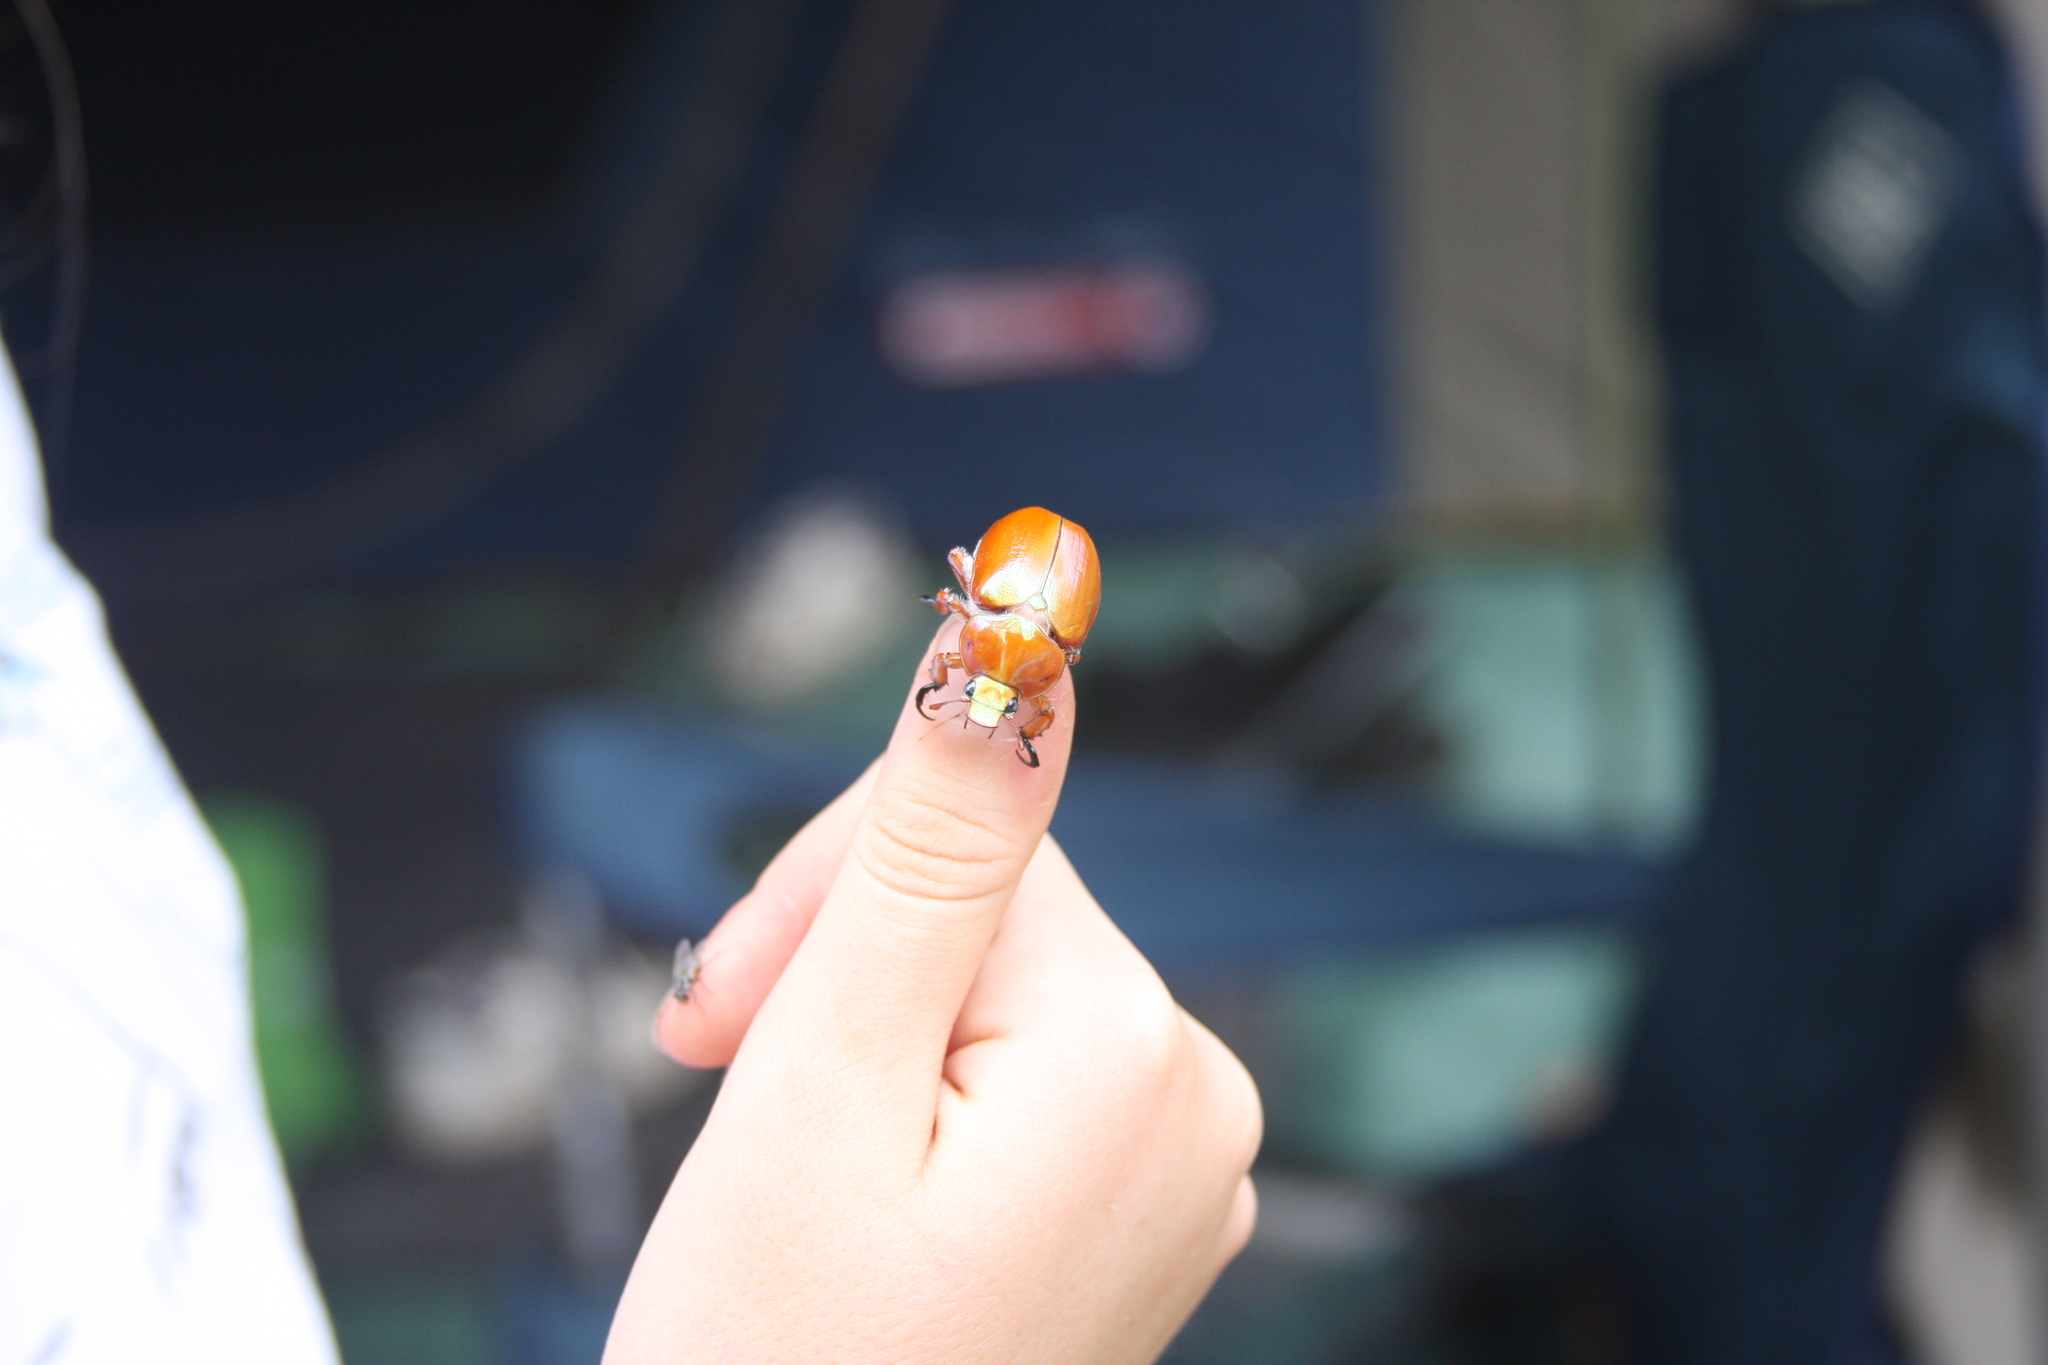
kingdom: Animalia
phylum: Arthropoda
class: Insecta
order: Coleoptera
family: Scarabaeidae
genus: Anoplognathus
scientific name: Anoplognathus montanus
